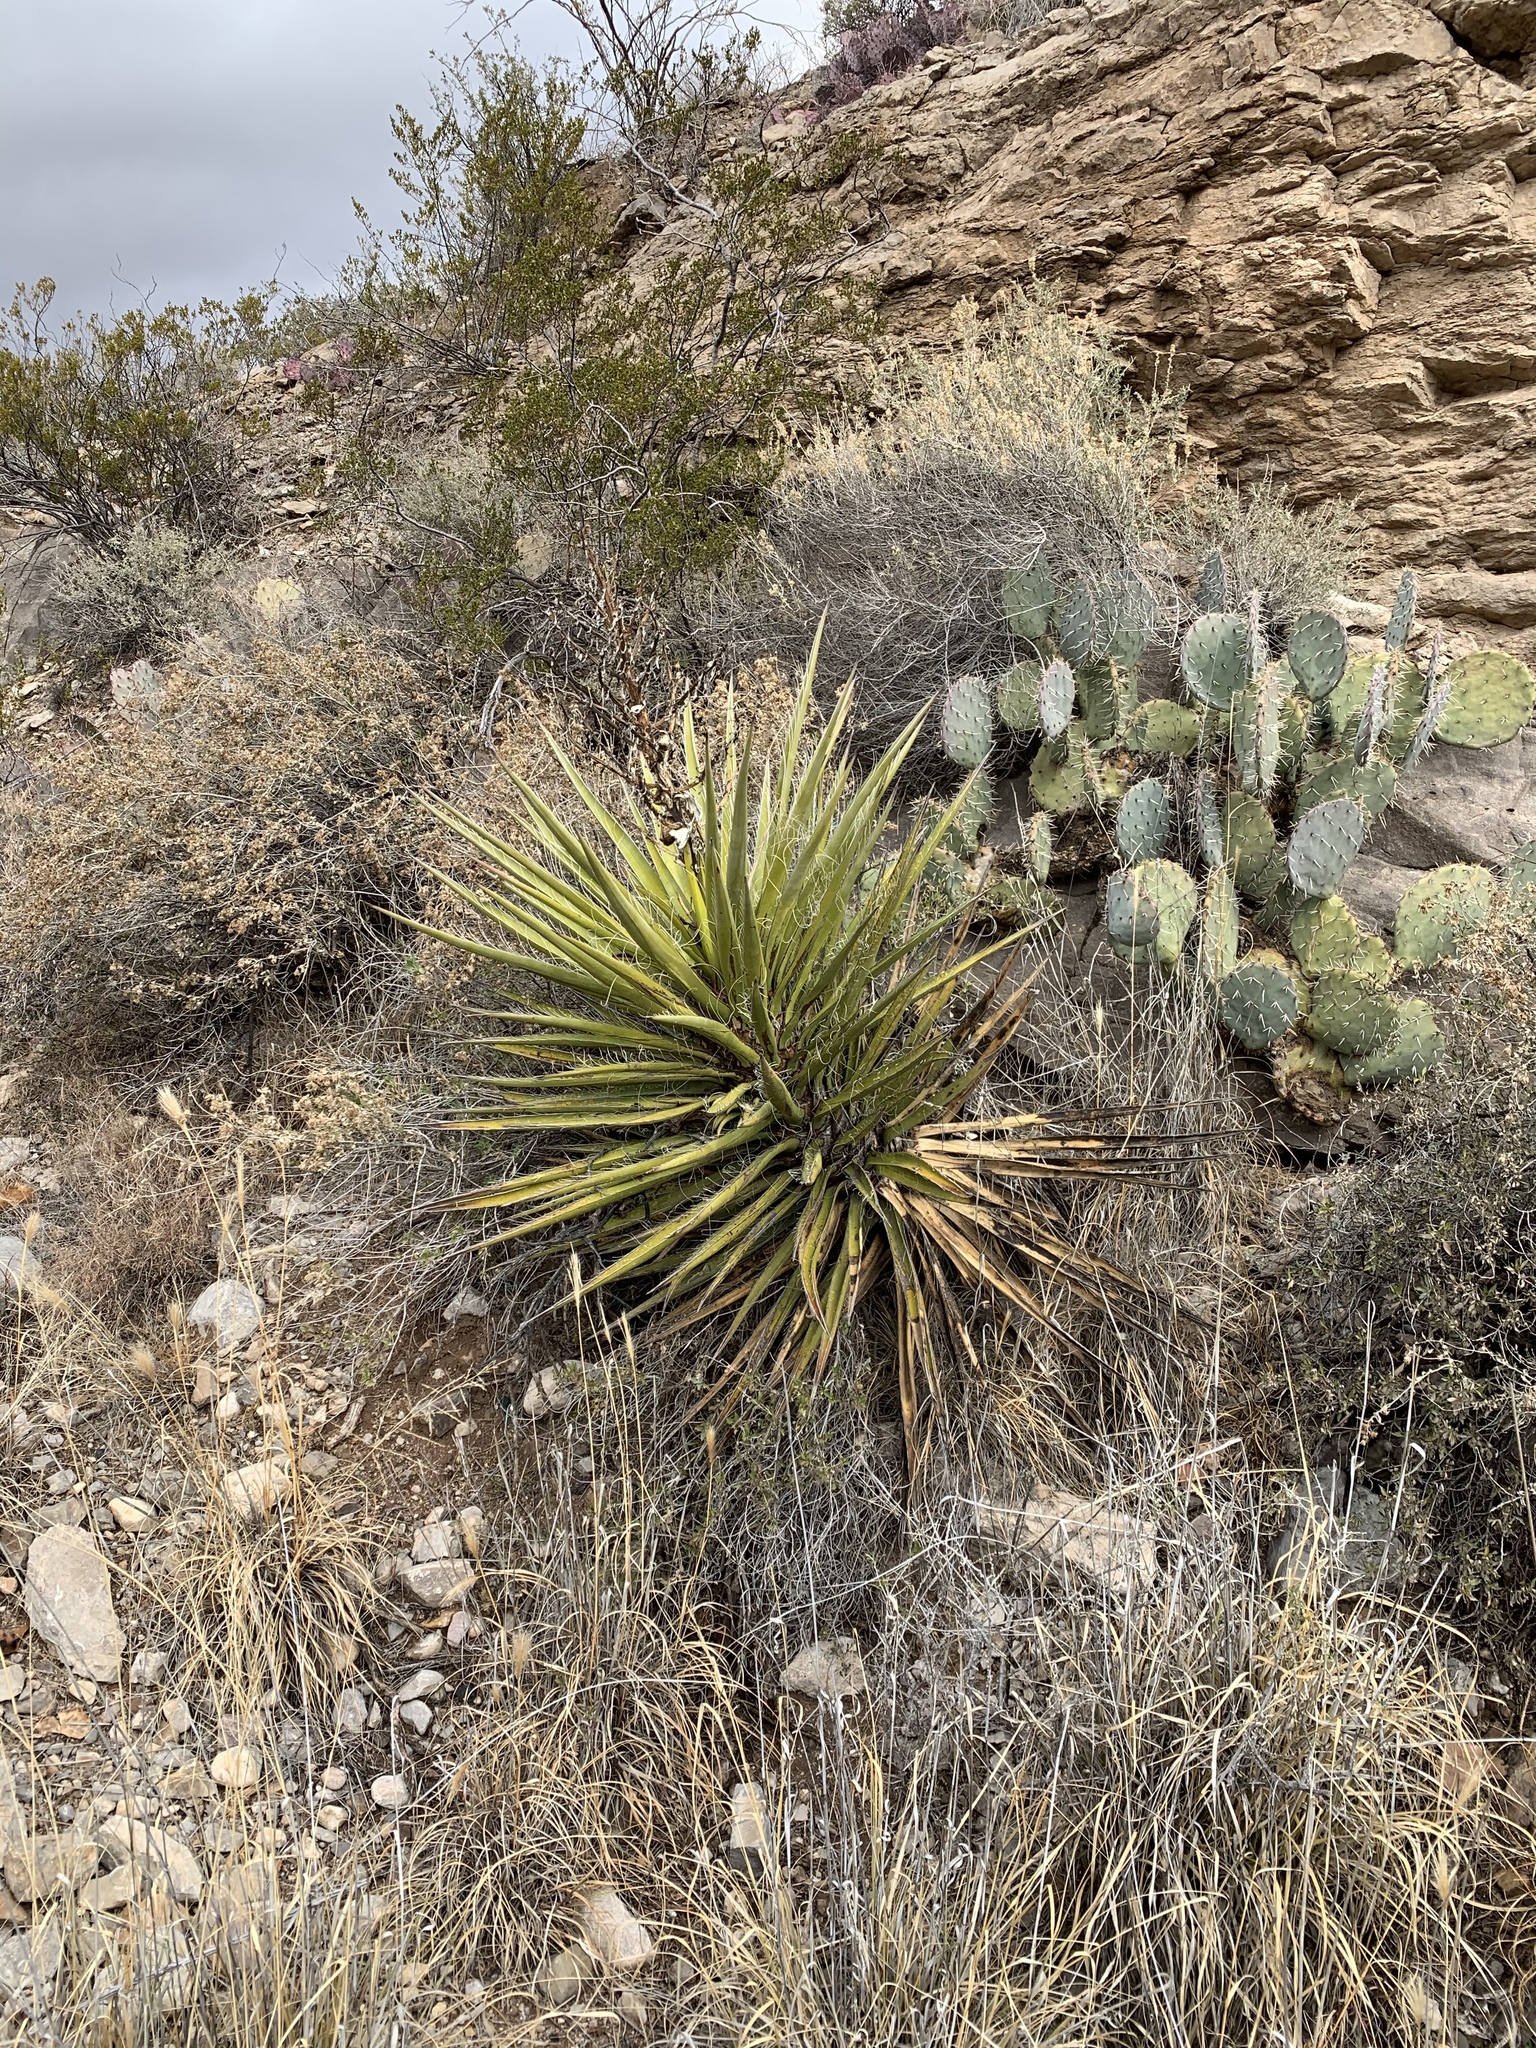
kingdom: Plantae
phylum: Tracheophyta
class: Liliopsida
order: Asparagales
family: Asparagaceae
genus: Yucca
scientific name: Yucca treculiana
